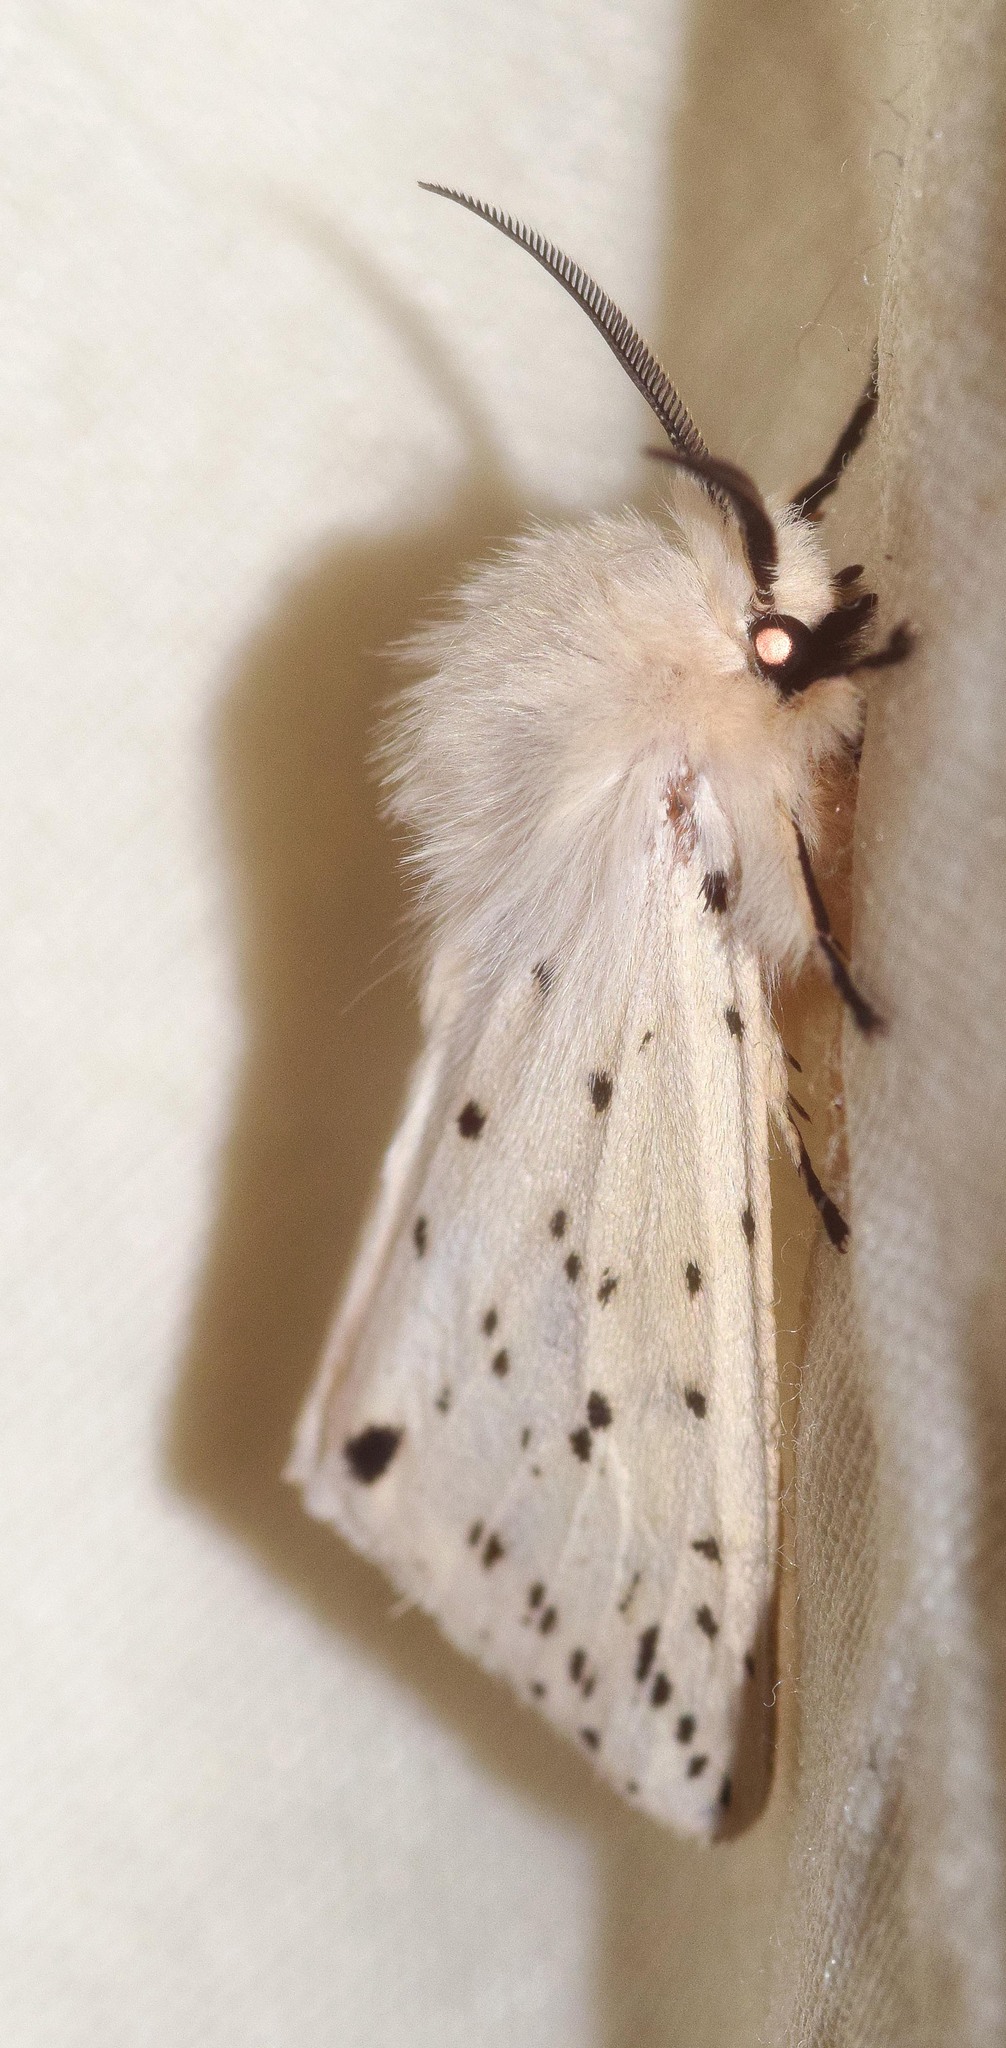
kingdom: Animalia
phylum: Arthropoda
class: Insecta
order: Lepidoptera
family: Erebidae
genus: Spilosoma
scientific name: Spilosoma lubricipeda
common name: White ermine
